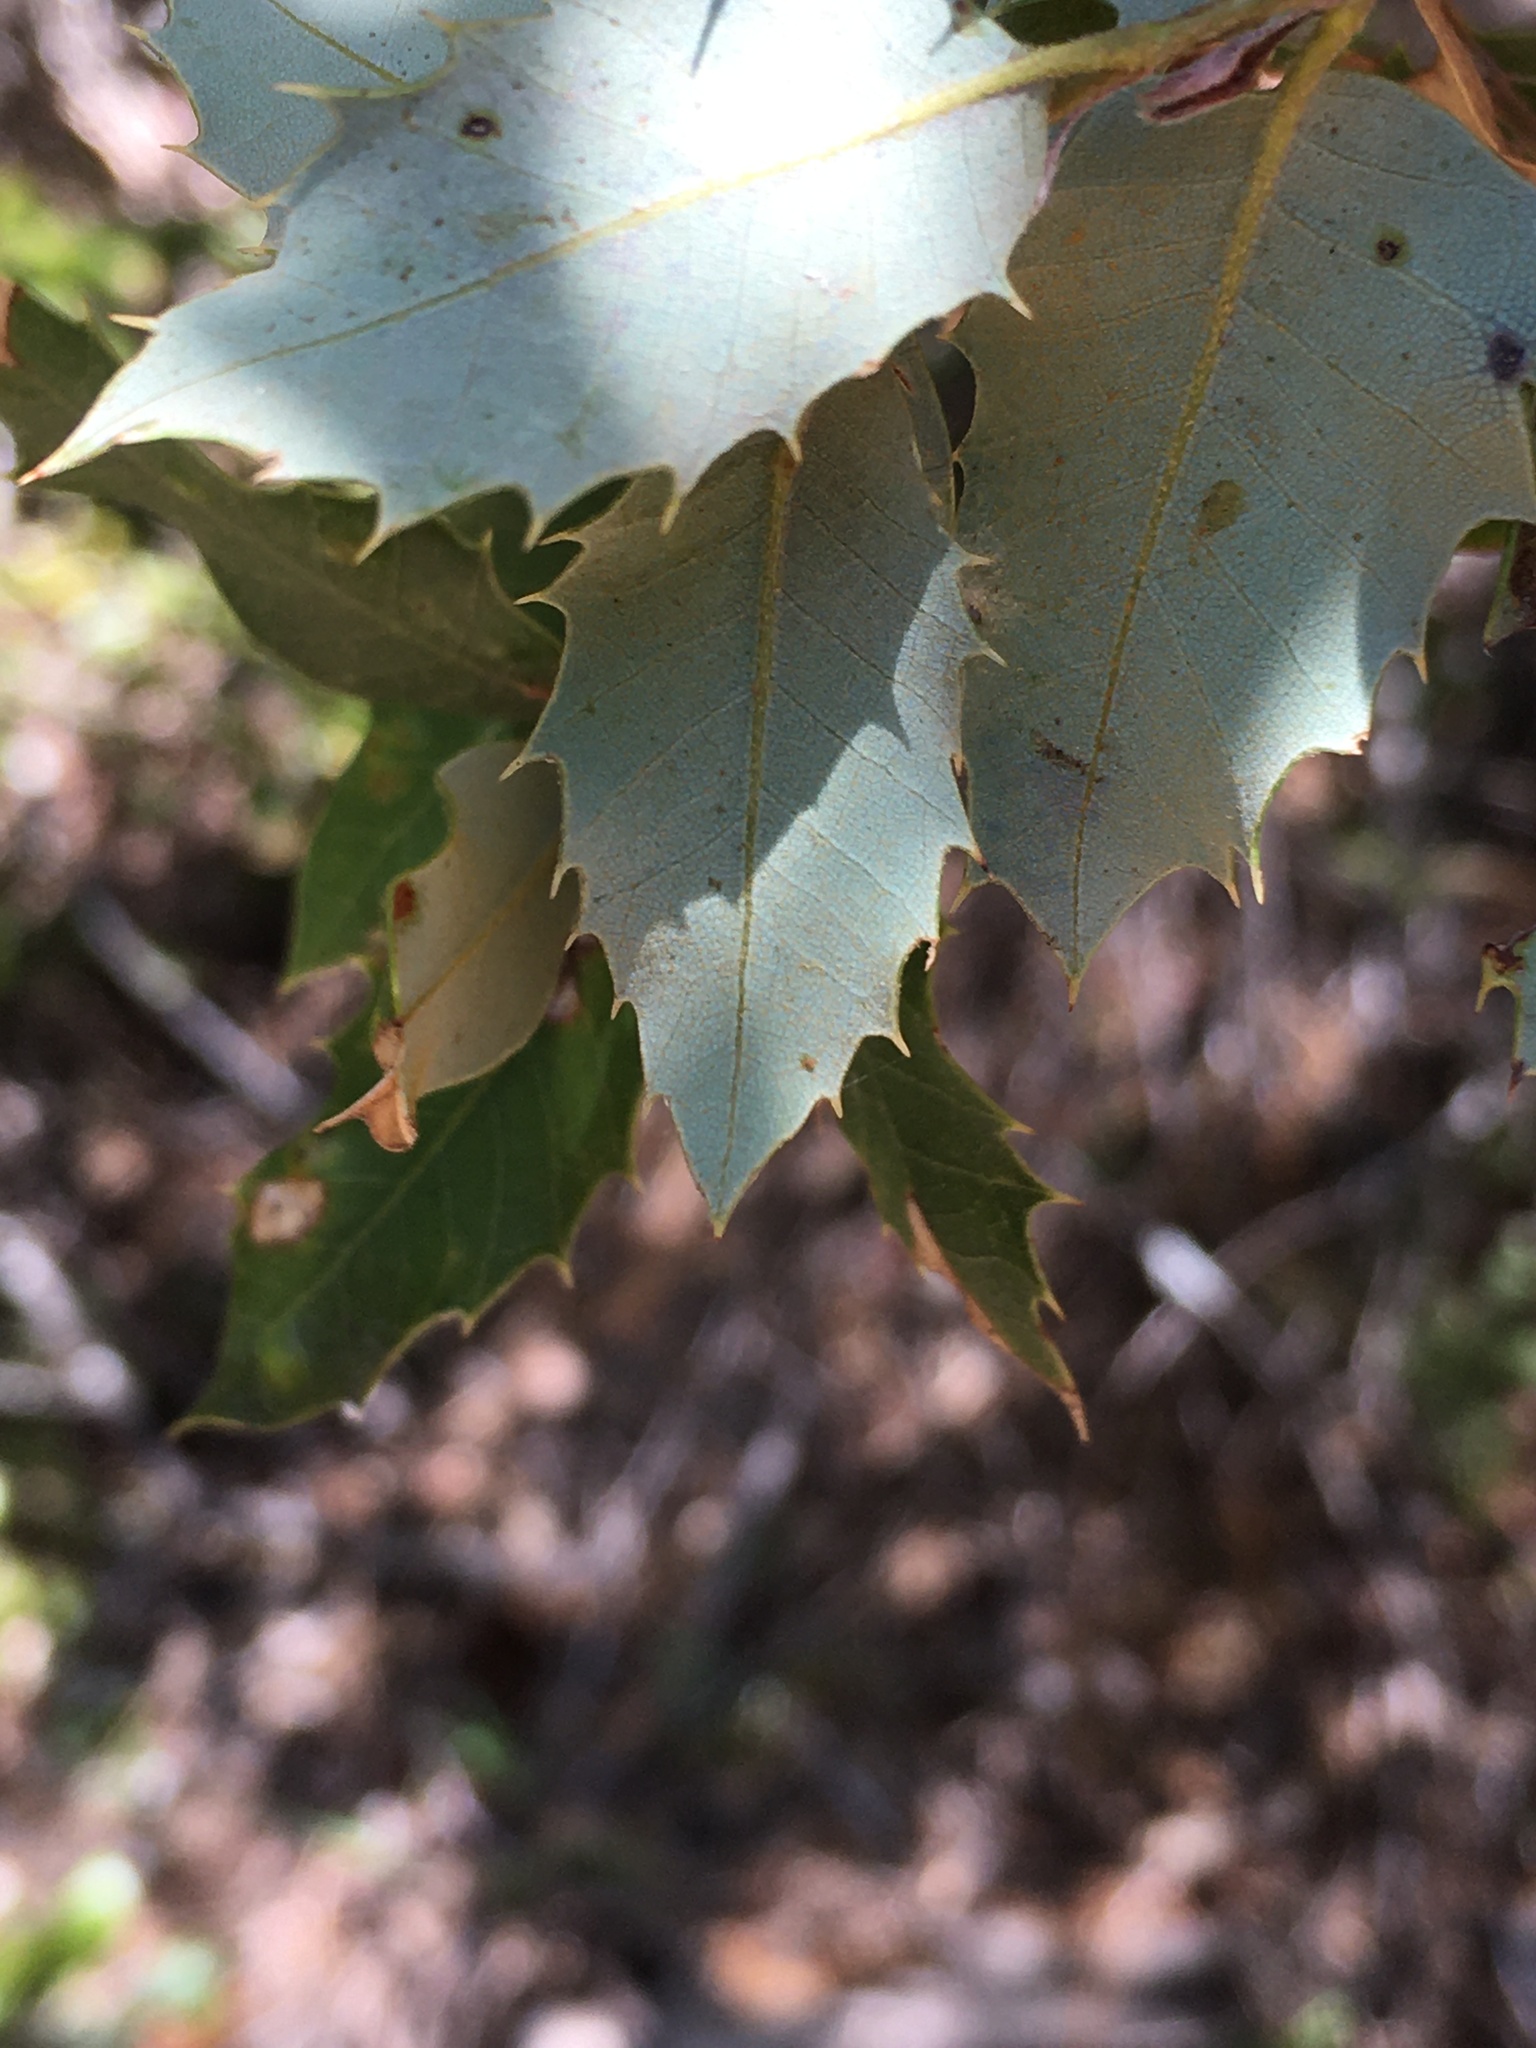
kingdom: Plantae
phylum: Tracheophyta
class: Magnoliopsida
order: Fagales
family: Fagaceae
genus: Quercus
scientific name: Quercus chrysolepis
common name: Canyon live oak
